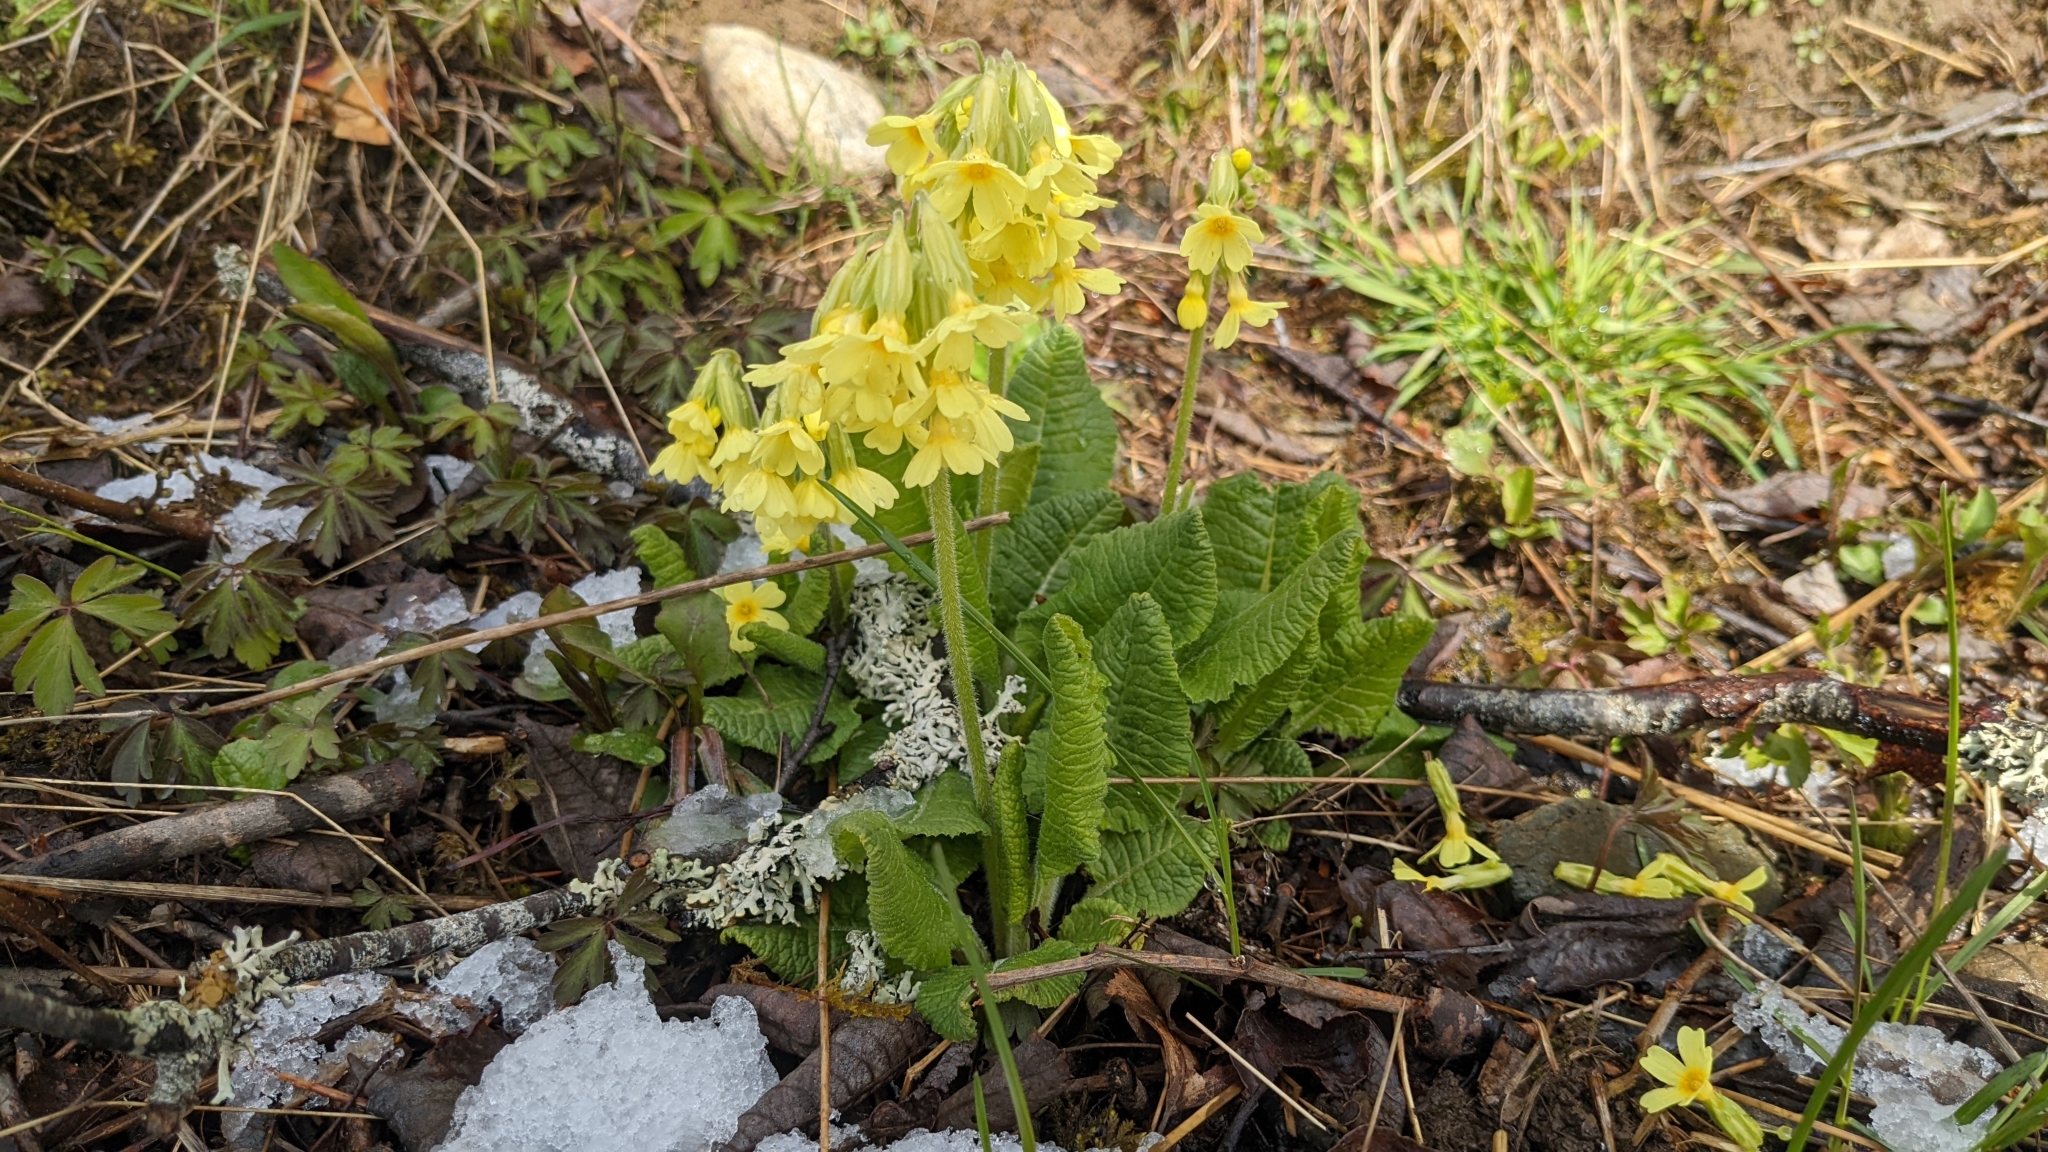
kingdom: Plantae
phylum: Tracheophyta
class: Magnoliopsida
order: Ericales
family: Primulaceae
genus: Primula
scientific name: Primula elatior
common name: Oxlip
